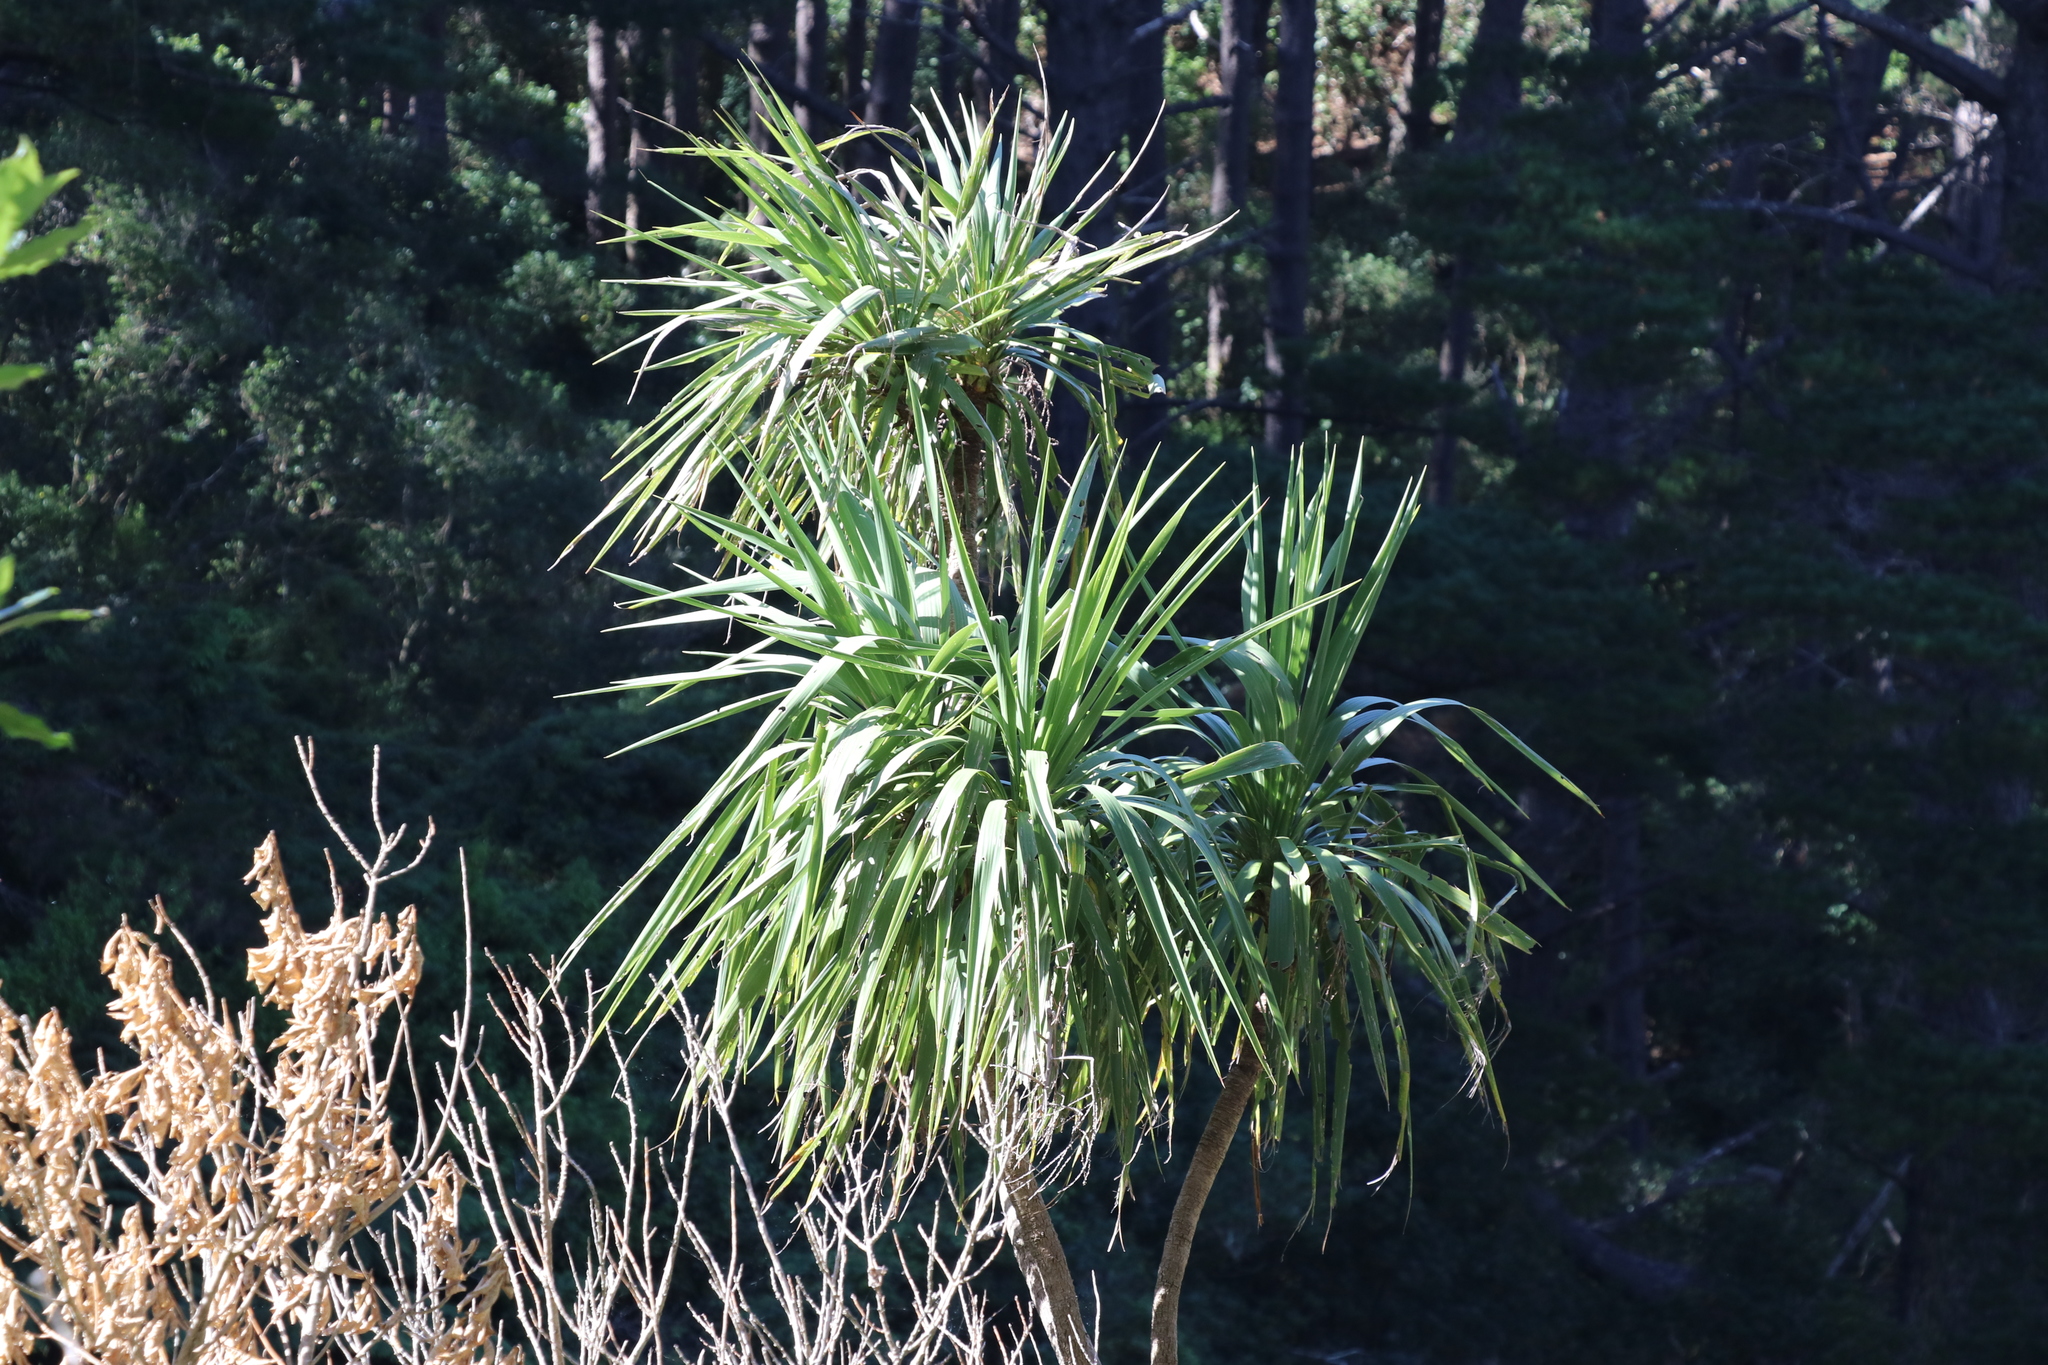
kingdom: Plantae
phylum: Tracheophyta
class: Liliopsida
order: Asparagales
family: Asparagaceae
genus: Cordyline
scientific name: Cordyline australis
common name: Cabbage-palm
